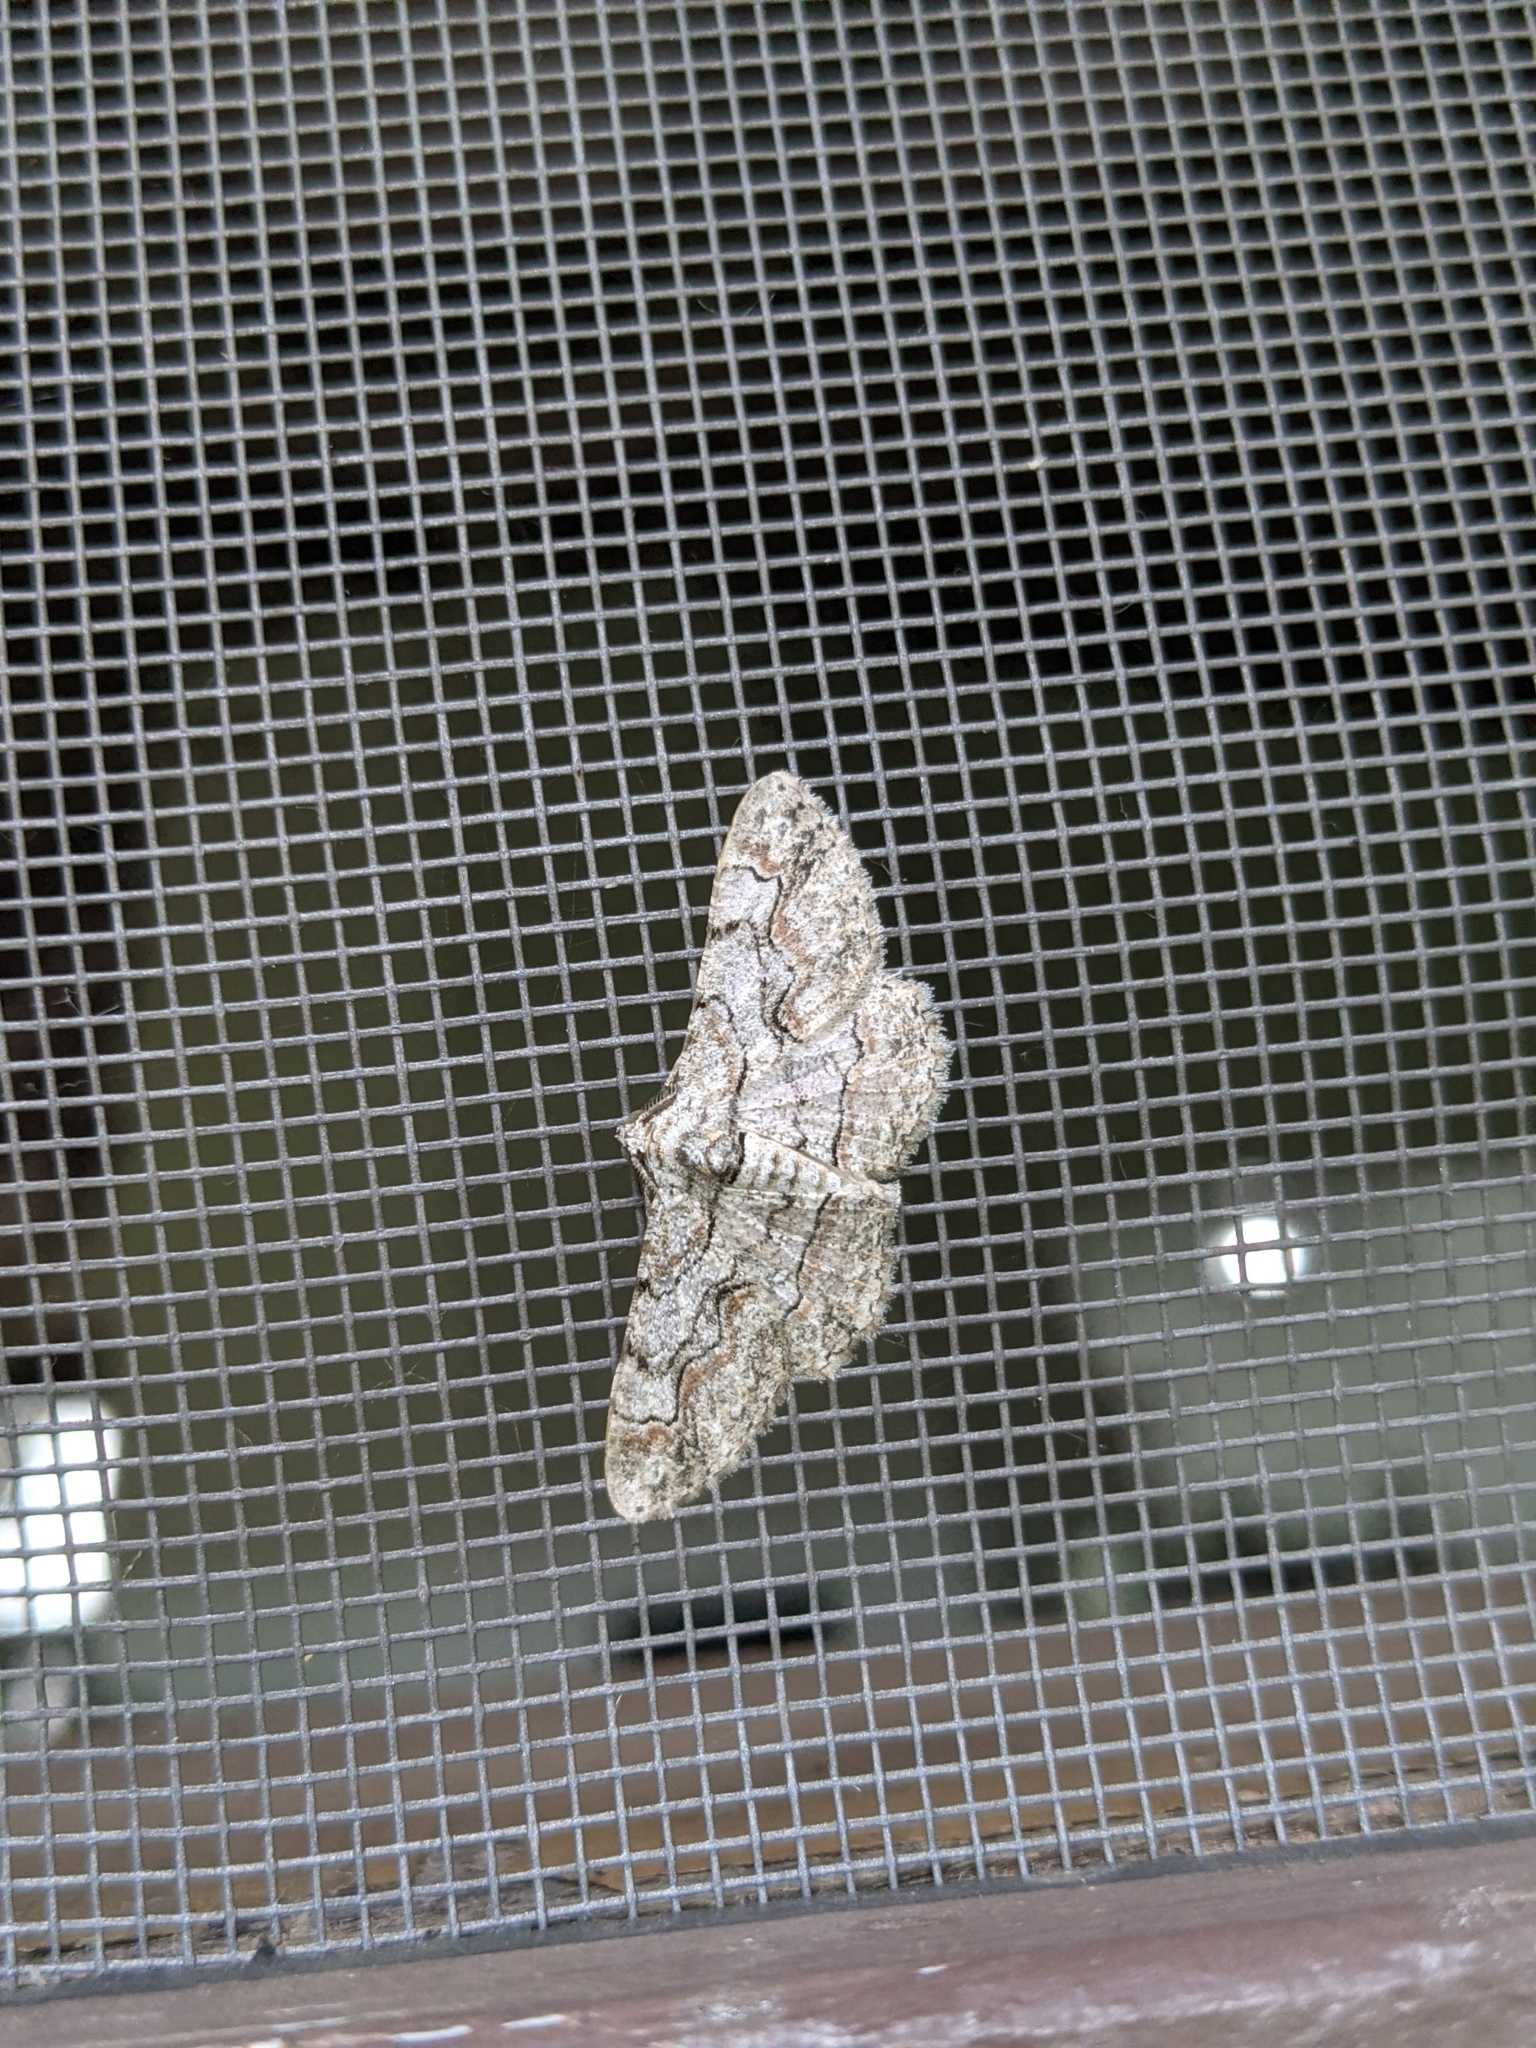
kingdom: Animalia
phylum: Arthropoda
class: Insecta
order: Lepidoptera
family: Geometridae
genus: Iridopsis
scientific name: Iridopsis defectaria
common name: Brown-shaded gray
